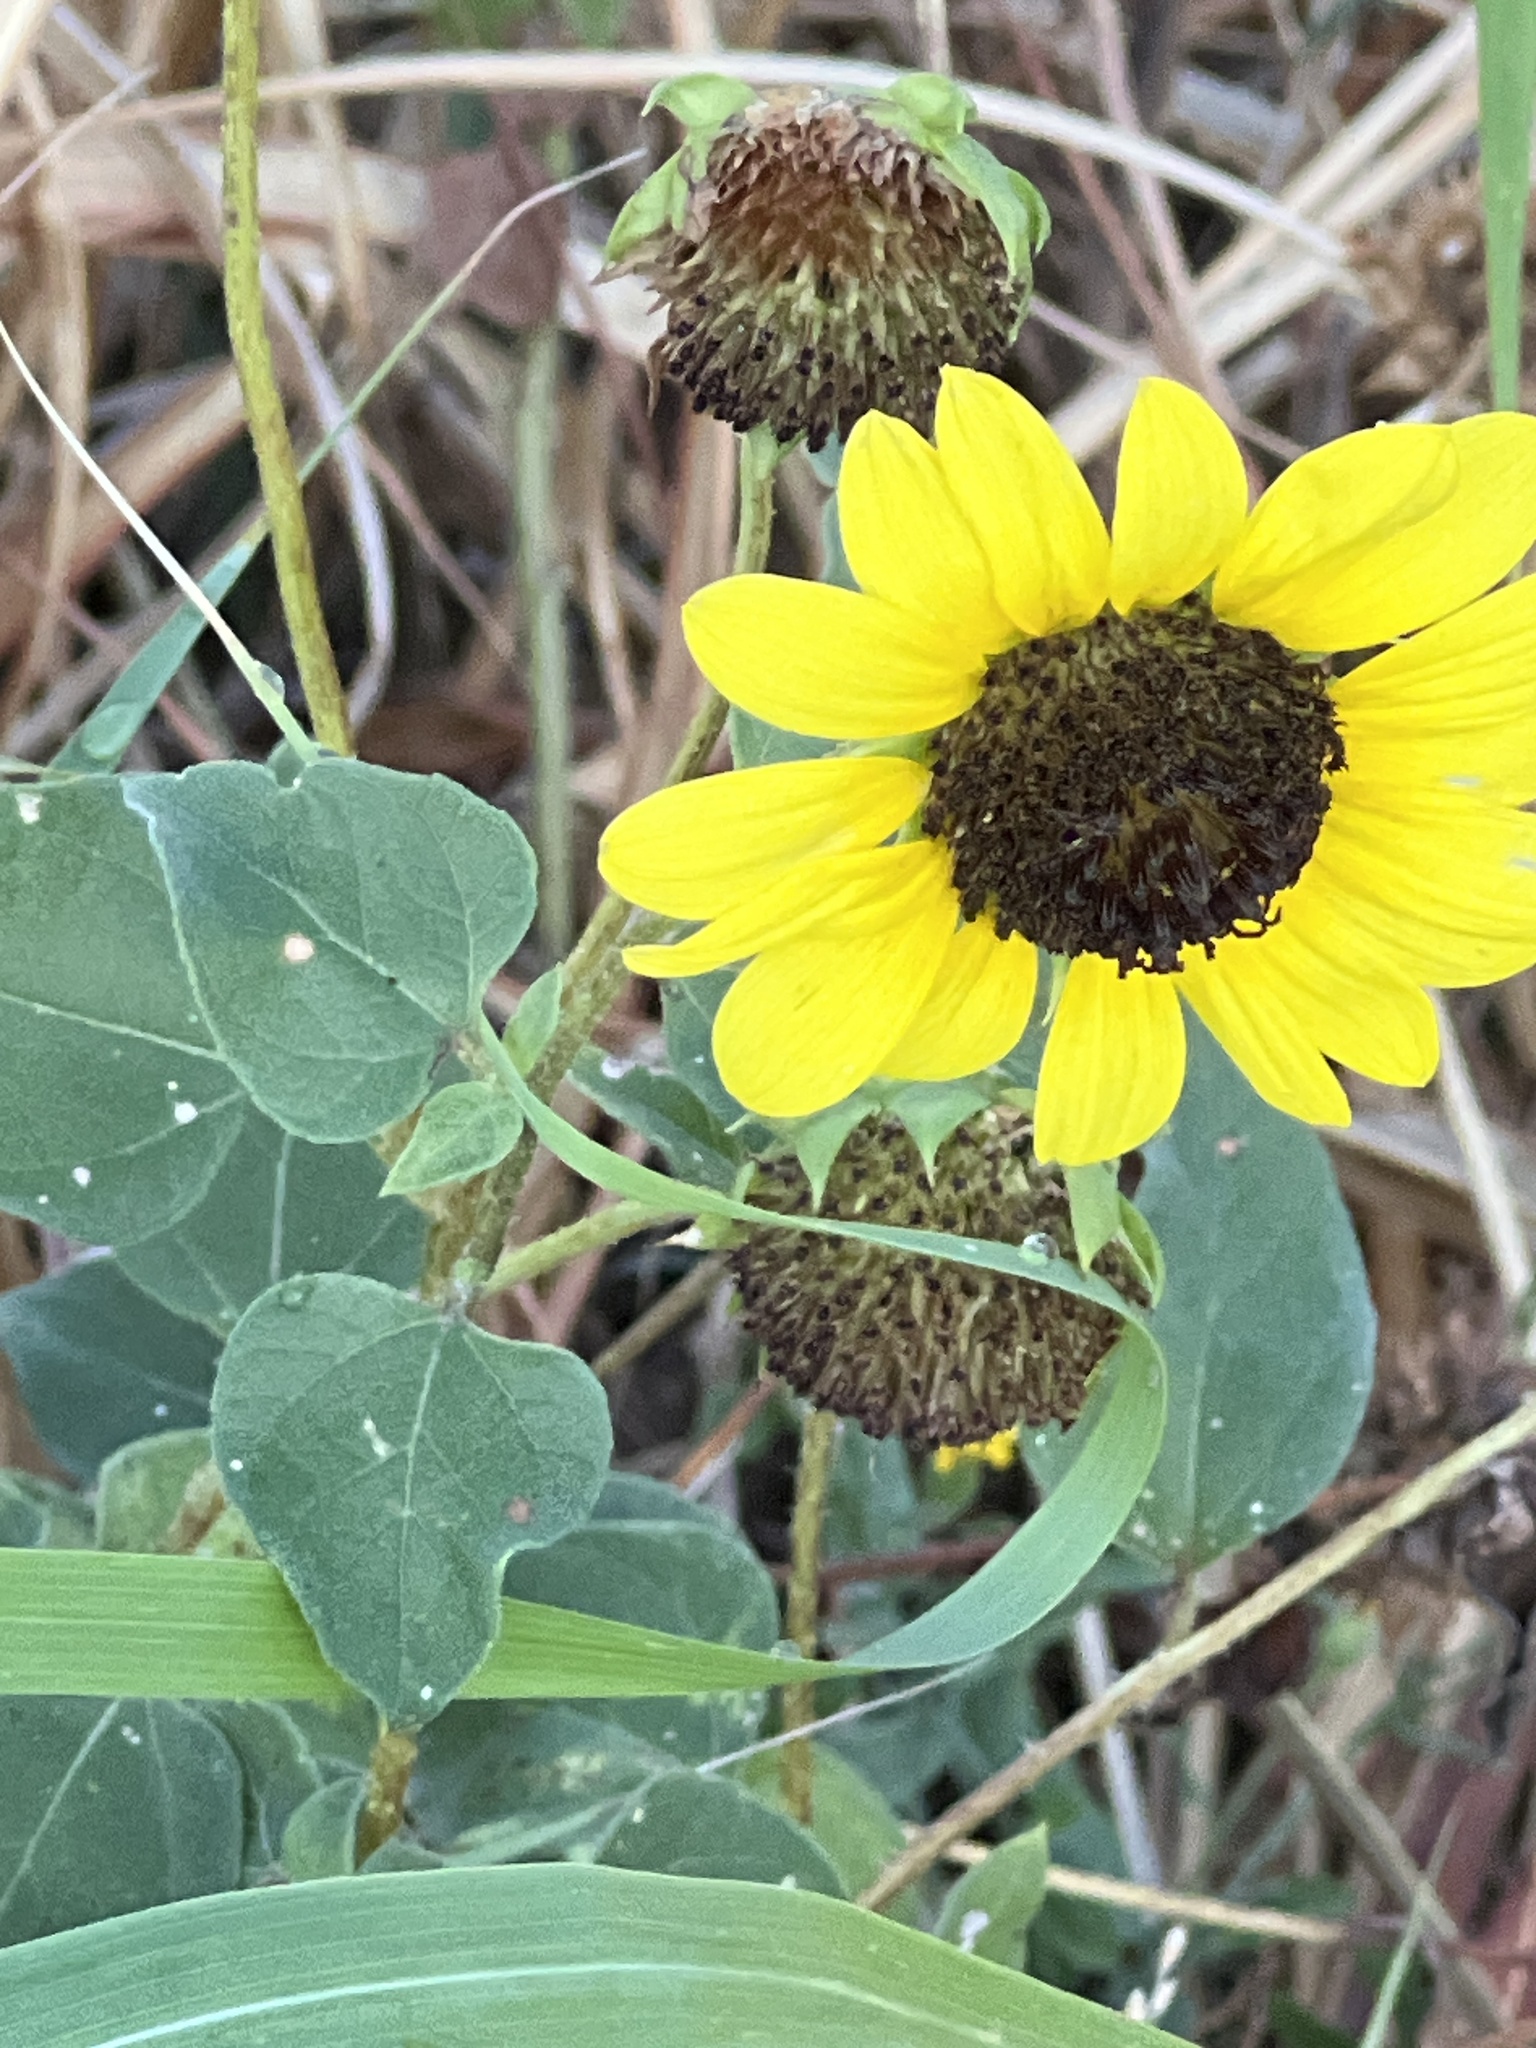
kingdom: Plantae
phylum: Tracheophyta
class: Magnoliopsida
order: Asterales
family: Asteraceae
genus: Helianthus
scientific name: Helianthus annuus
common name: Sunflower
